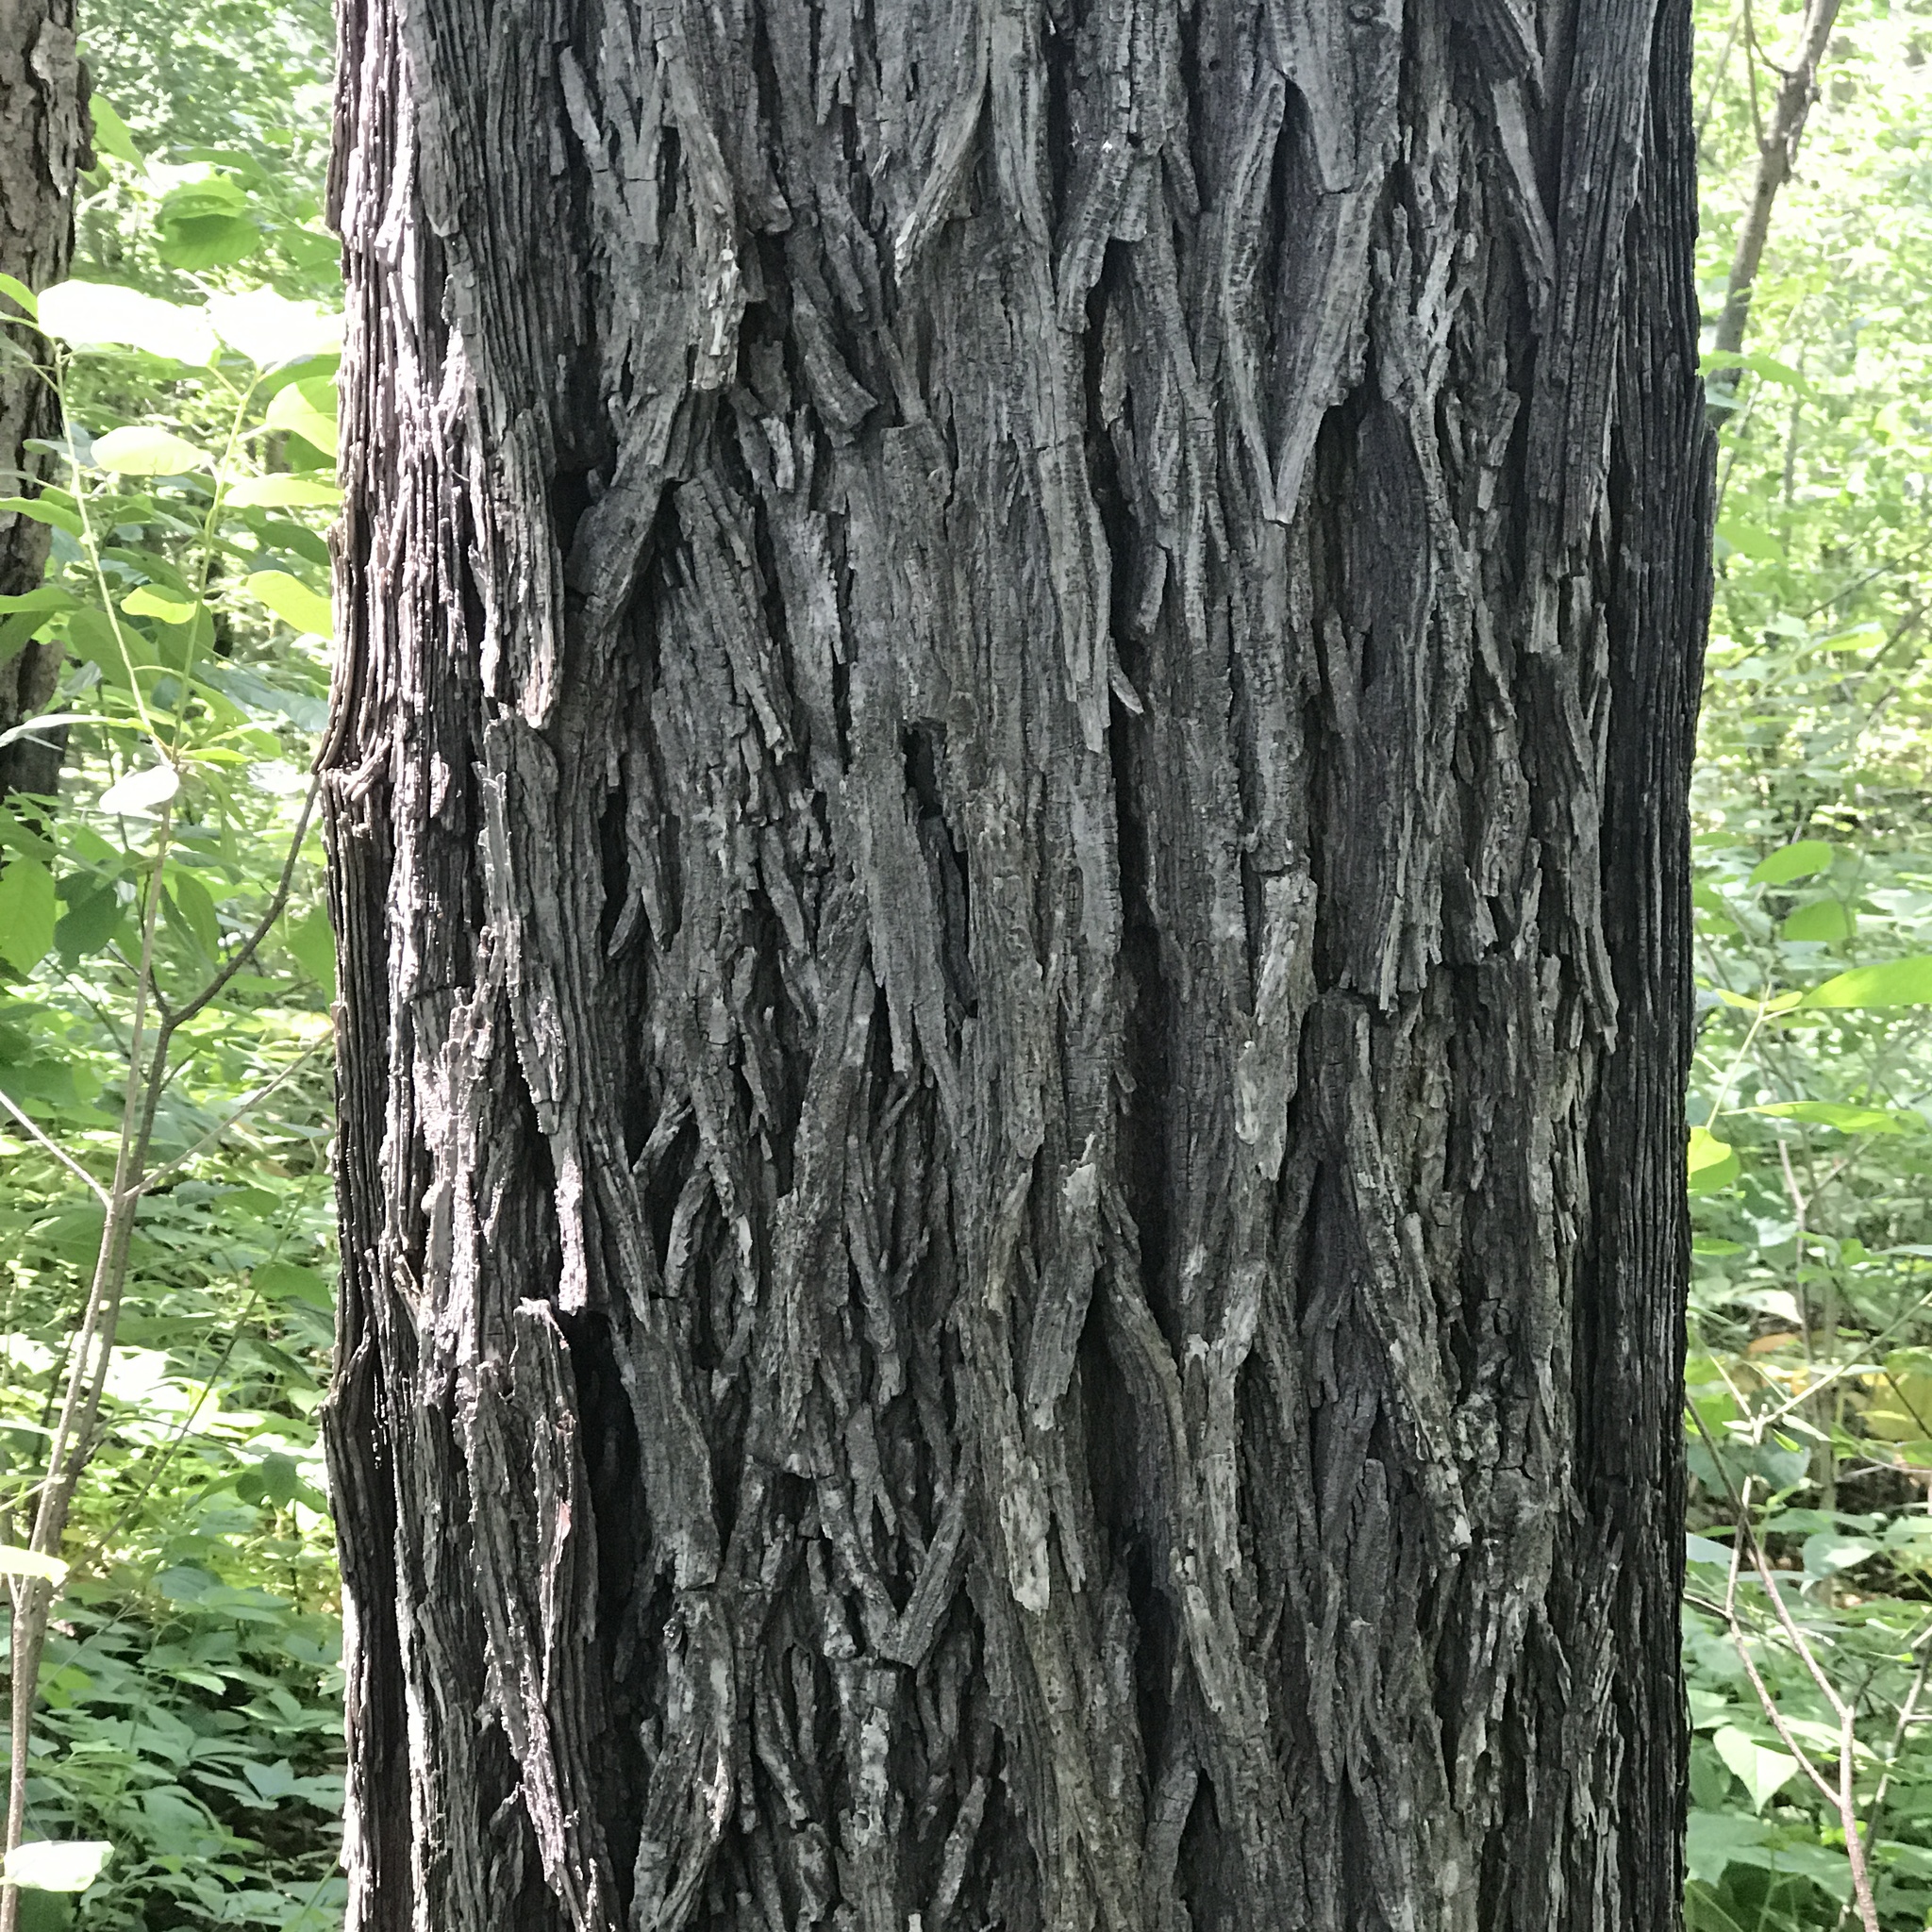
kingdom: Plantae
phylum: Tracheophyta
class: Magnoliopsida
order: Fagales
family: Juglandaceae
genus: Carya
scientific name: Carya glabra
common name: Pignut hickory
